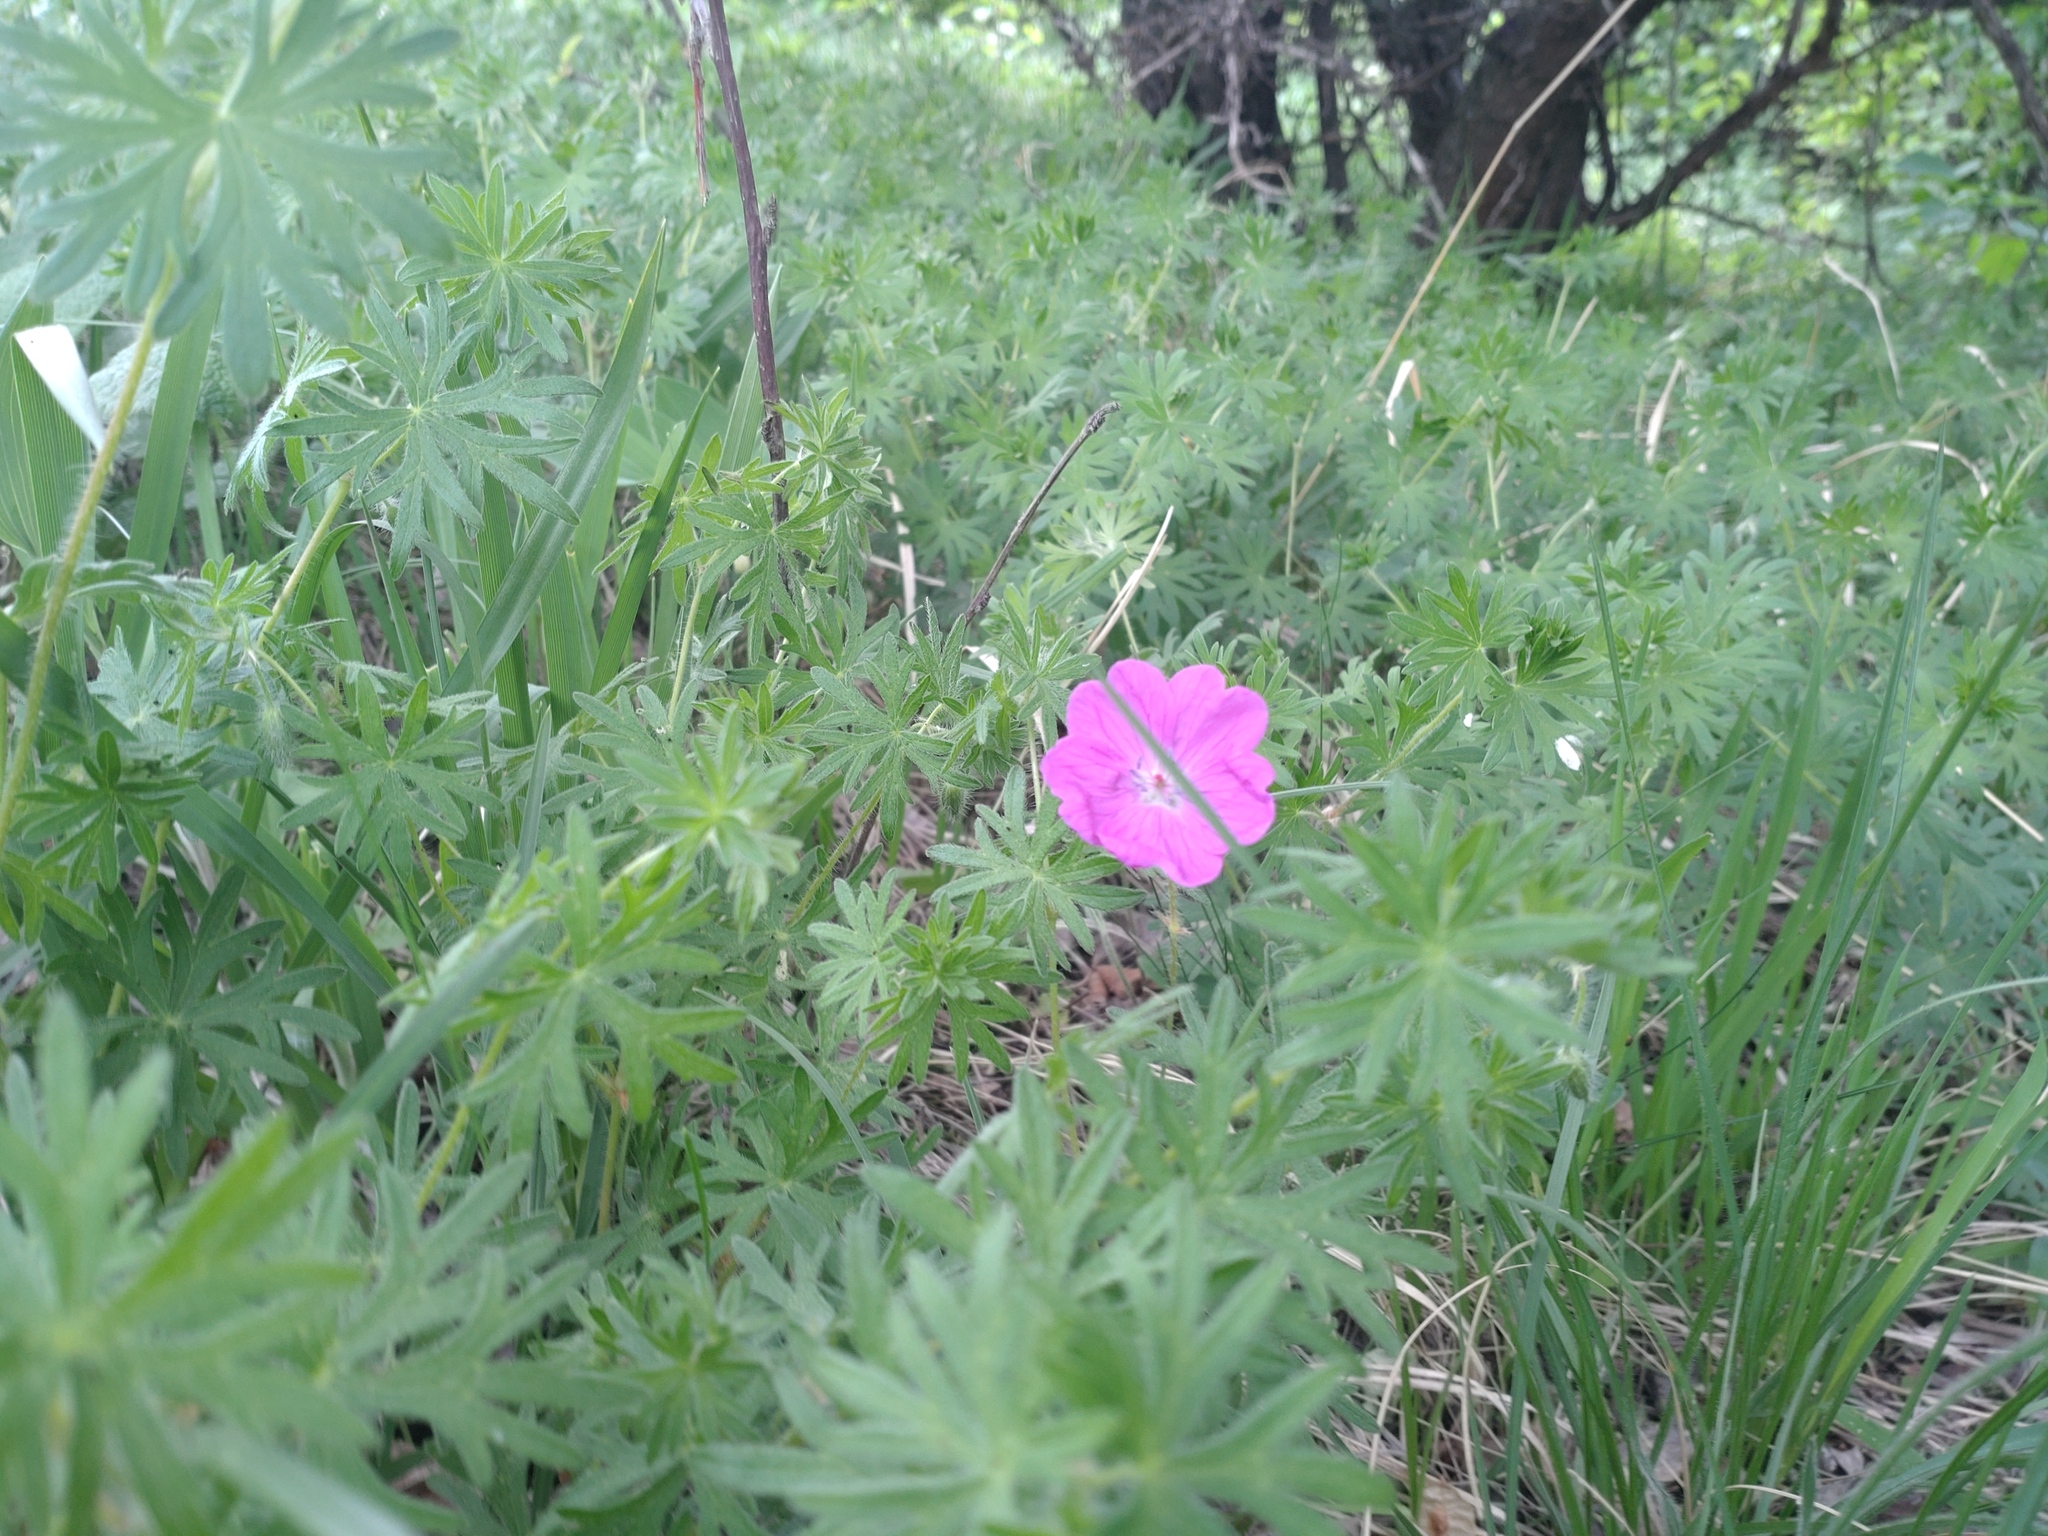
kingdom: Plantae
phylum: Tracheophyta
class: Magnoliopsida
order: Geraniales
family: Geraniaceae
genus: Geranium
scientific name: Geranium sanguineum
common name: Bloody crane's-bill
